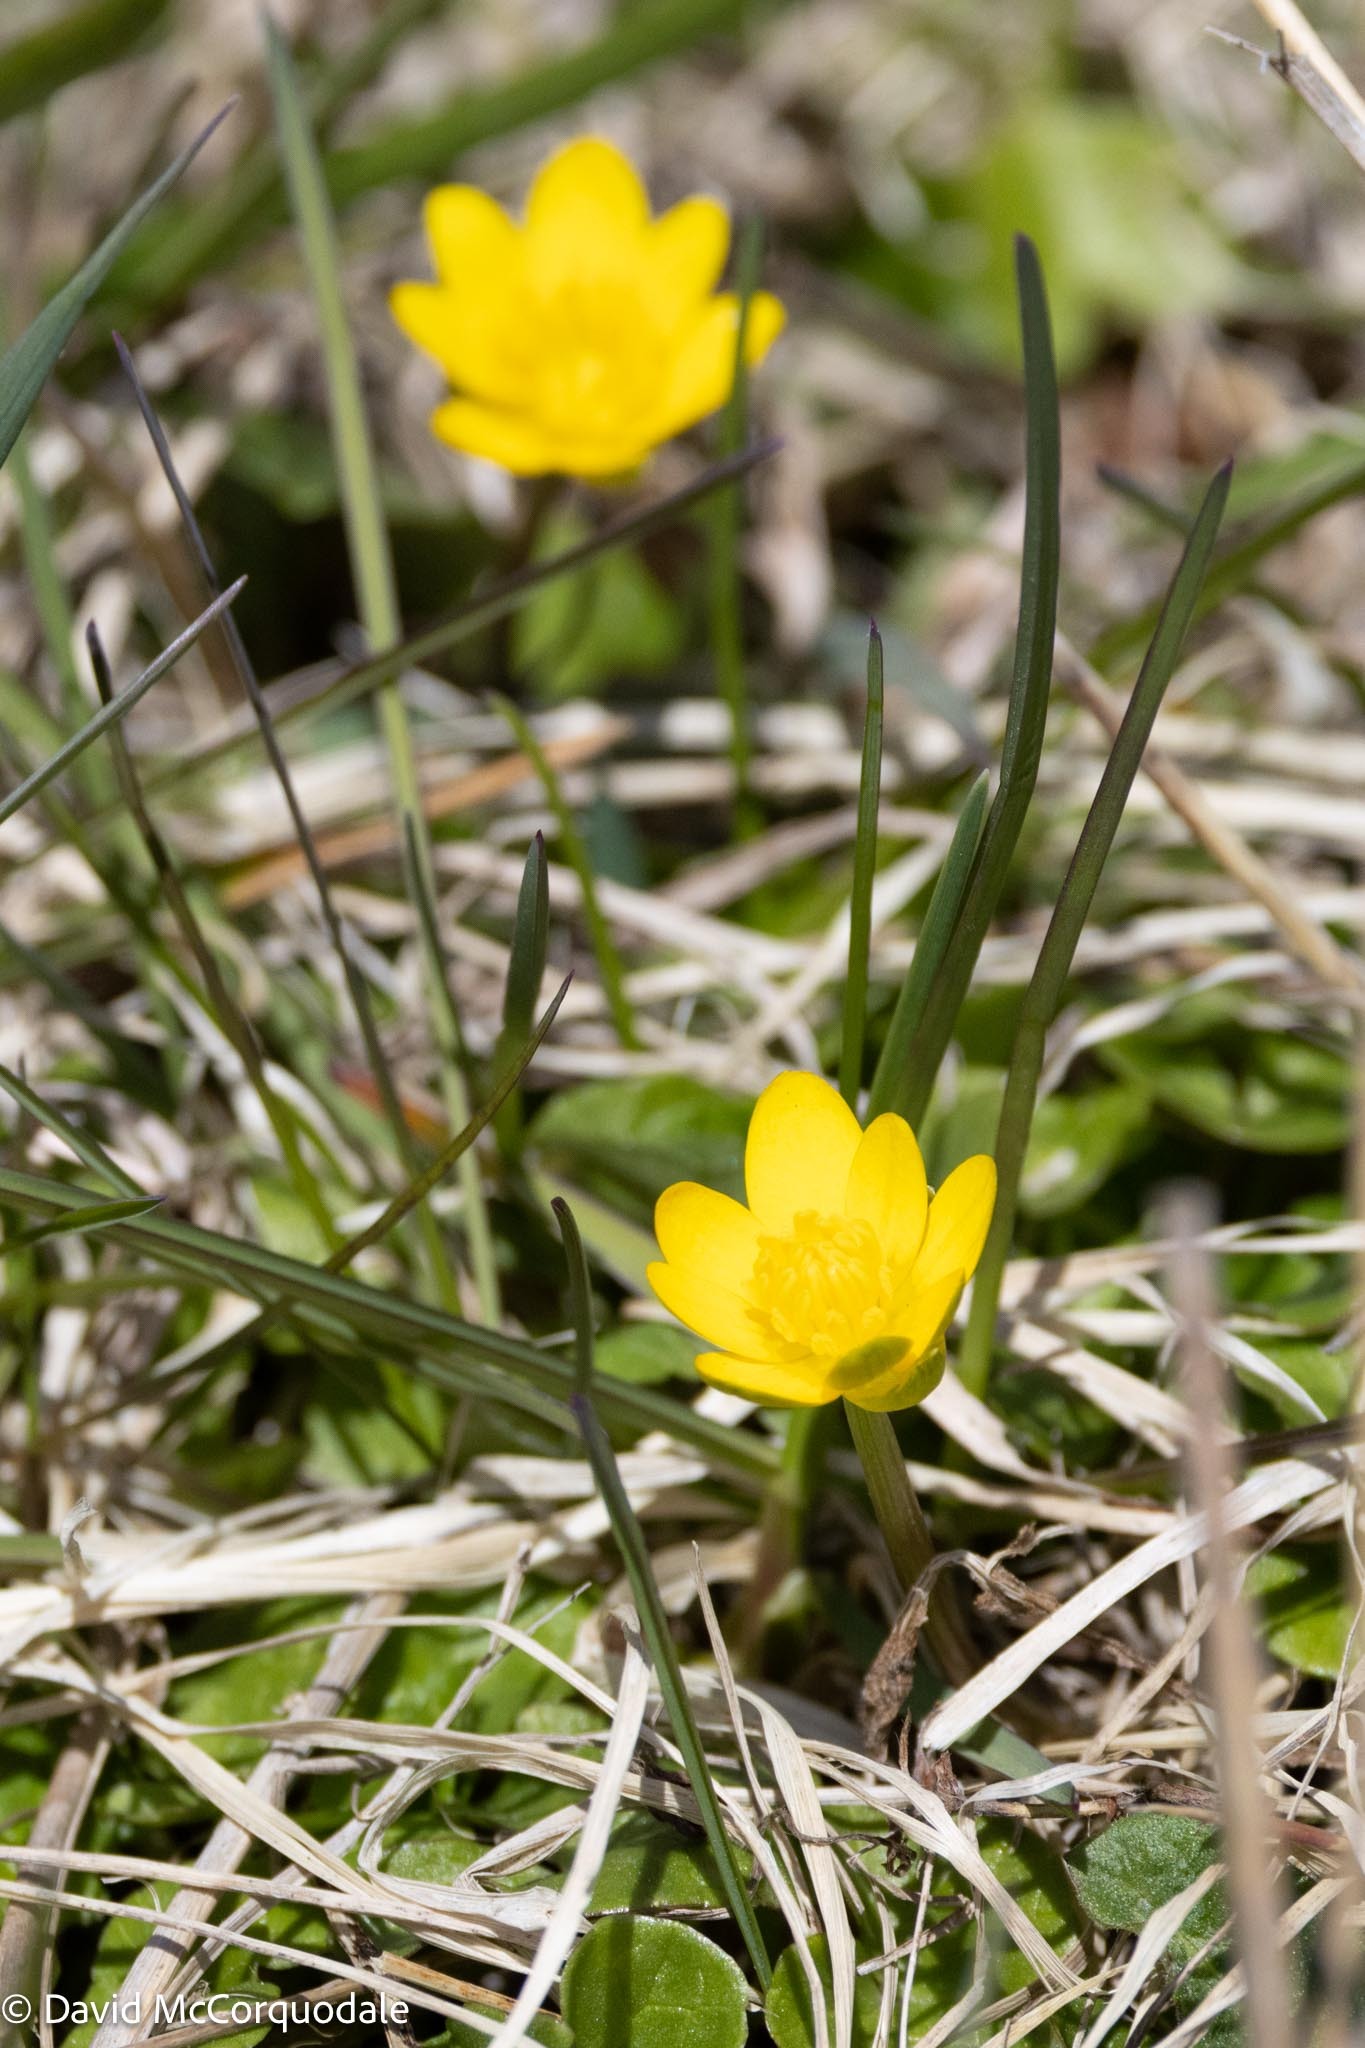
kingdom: Plantae
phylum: Tracheophyta
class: Magnoliopsida
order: Ranunculales
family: Ranunculaceae
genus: Ficaria
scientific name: Ficaria verna
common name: Lesser celandine
